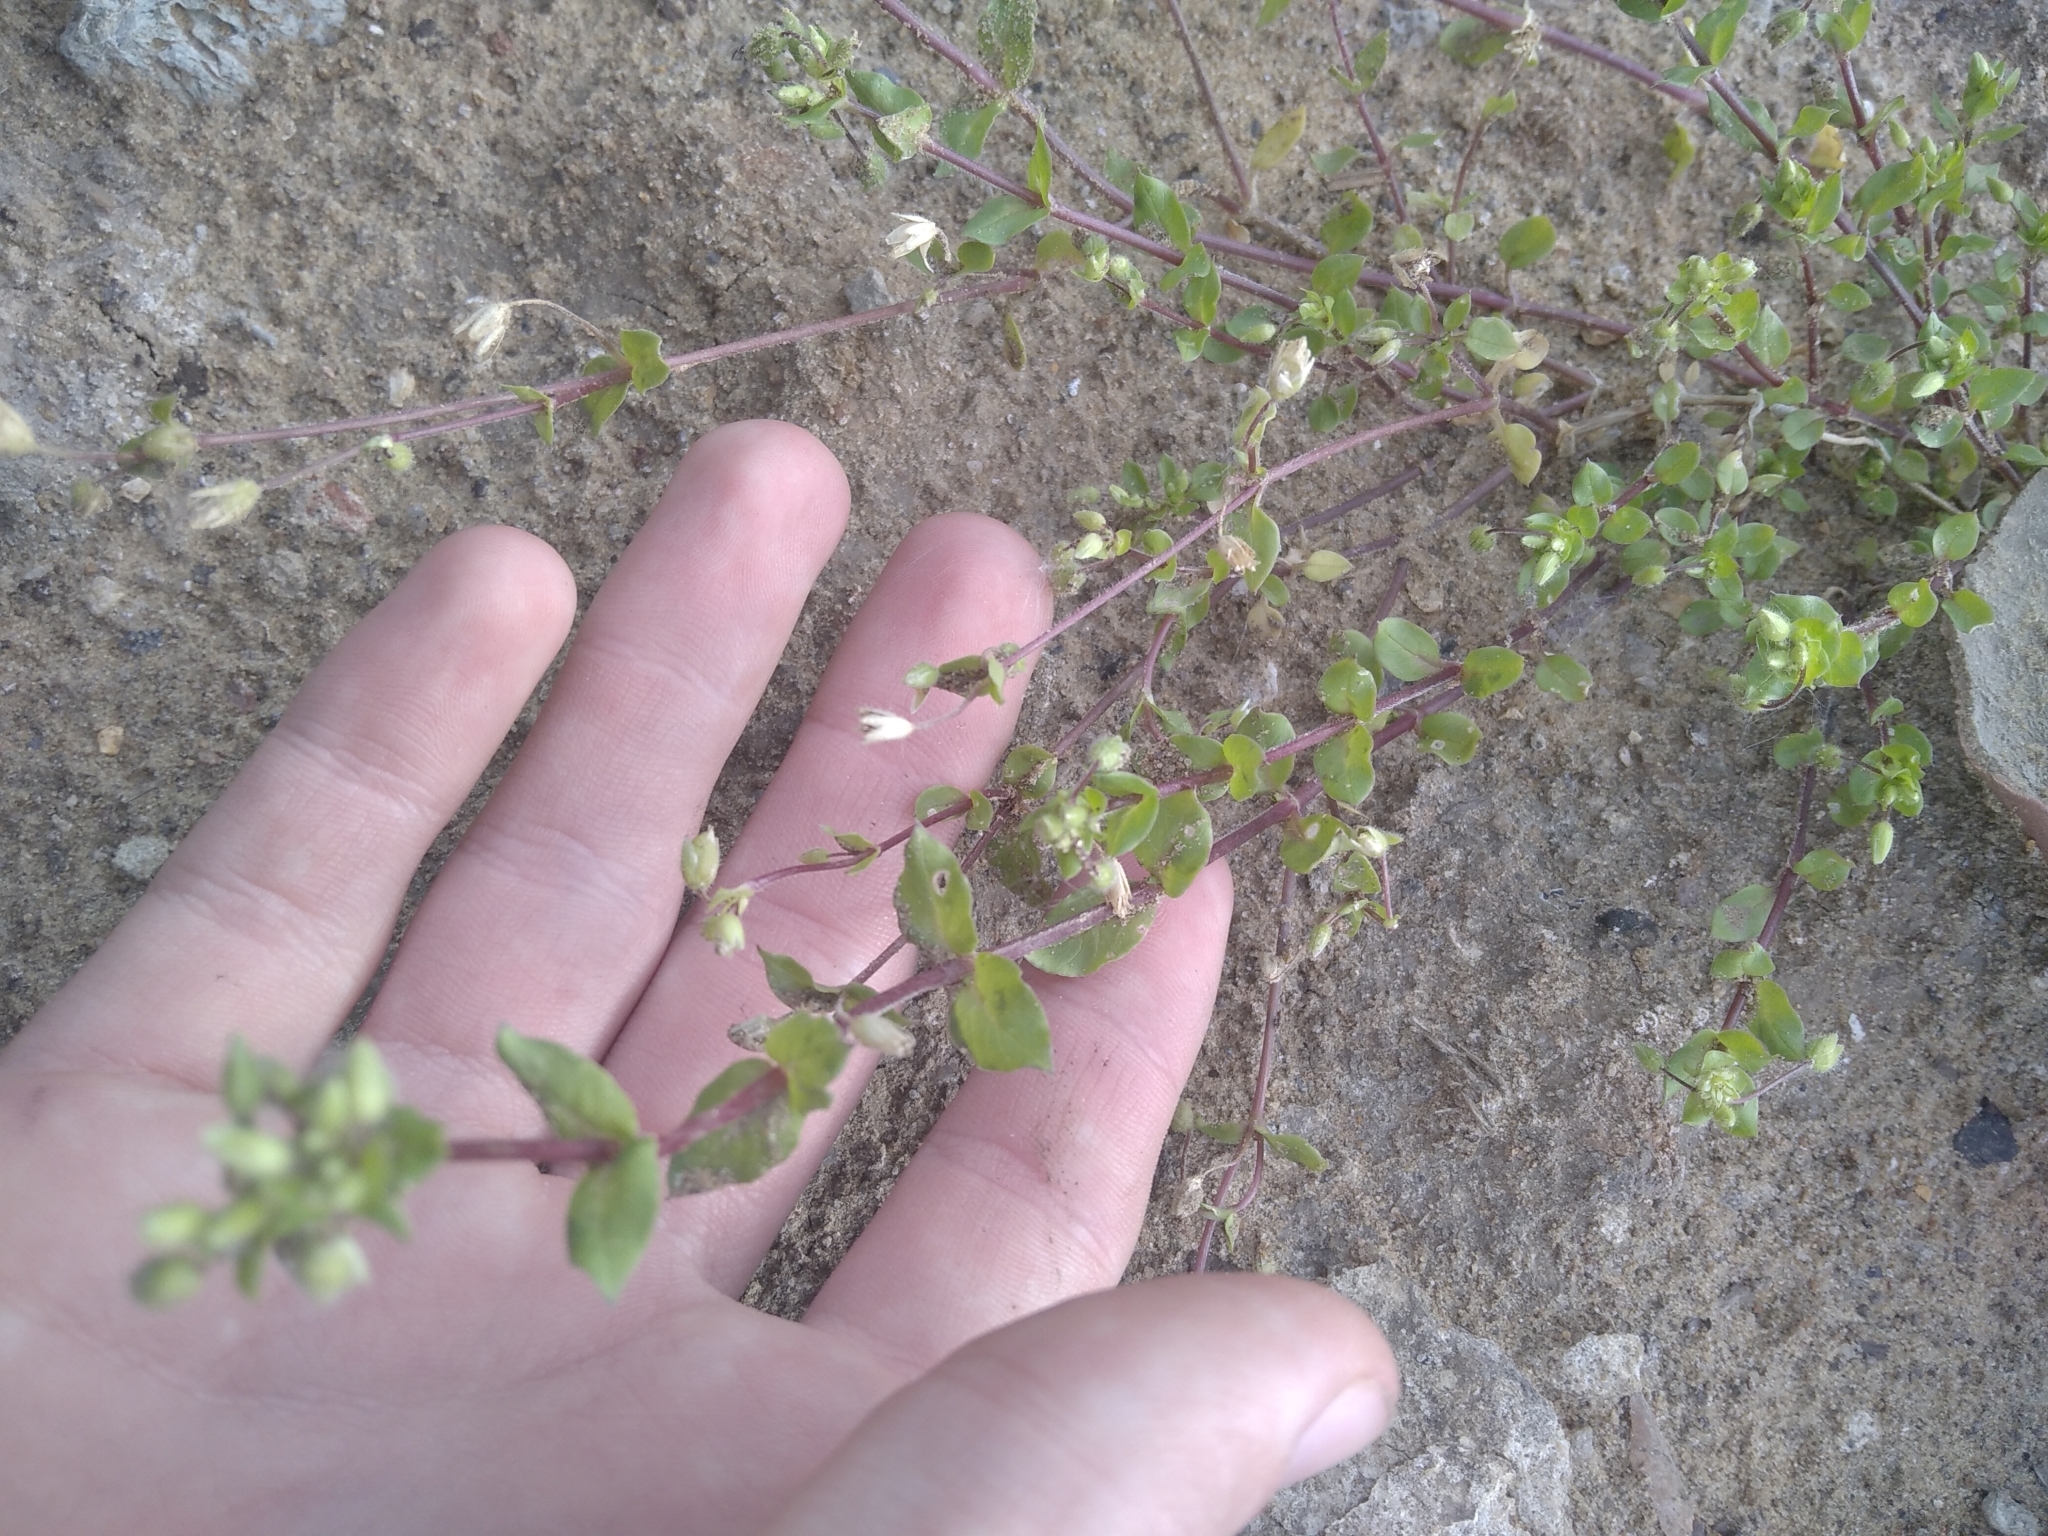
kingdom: Plantae
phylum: Tracheophyta
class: Magnoliopsida
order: Caryophyllales
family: Caryophyllaceae
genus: Stellaria
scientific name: Stellaria media
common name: Common chickweed
